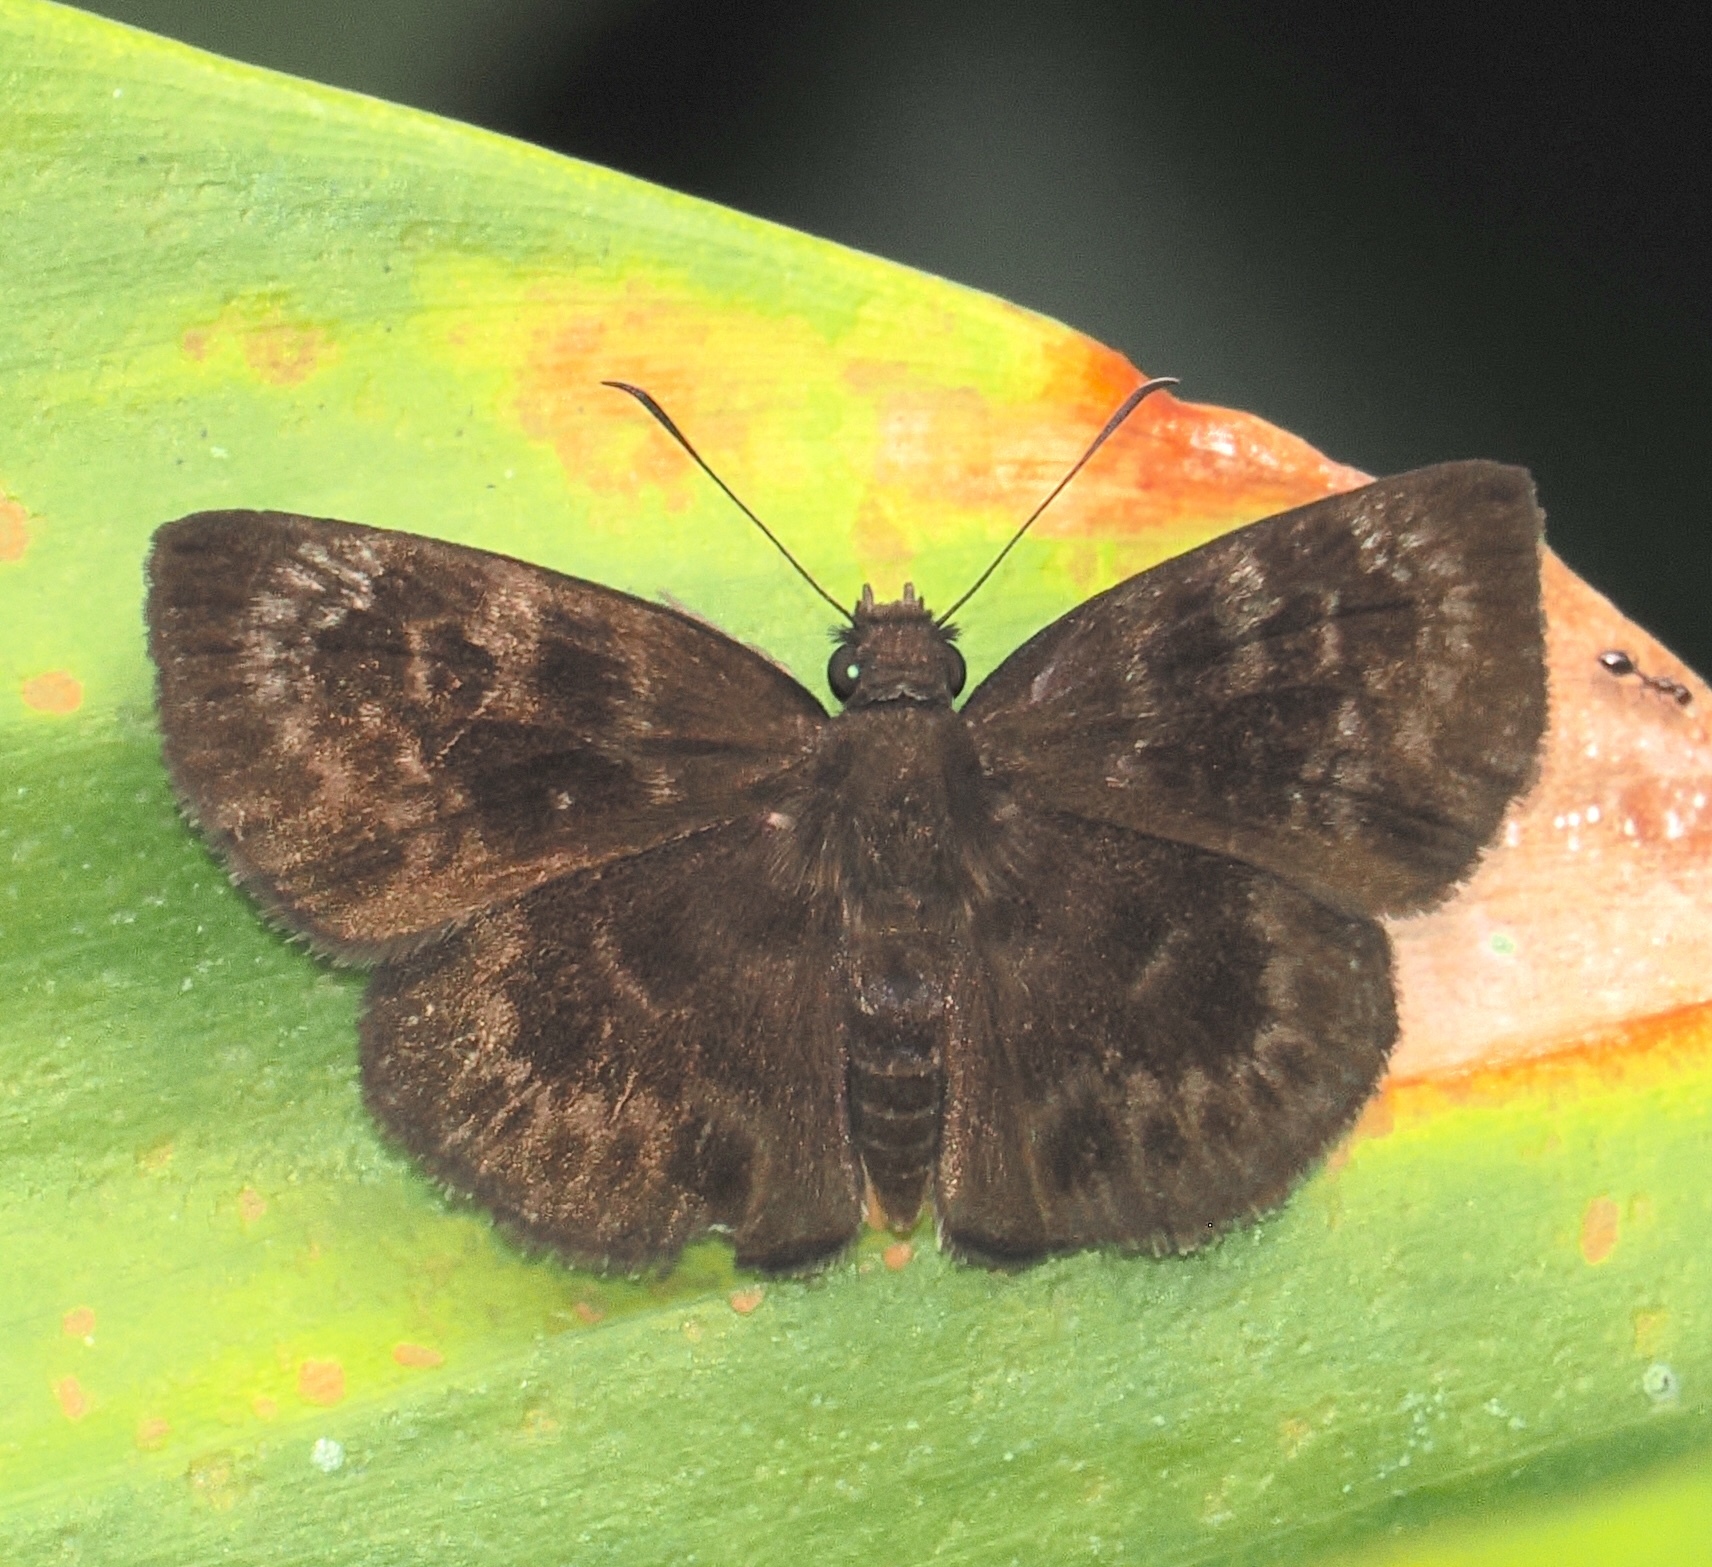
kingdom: Animalia
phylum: Arthropoda
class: Insecta
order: Lepidoptera
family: Hesperiidae
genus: Ouleus
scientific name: Ouleus fridericus
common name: Fridericus spreadwing
